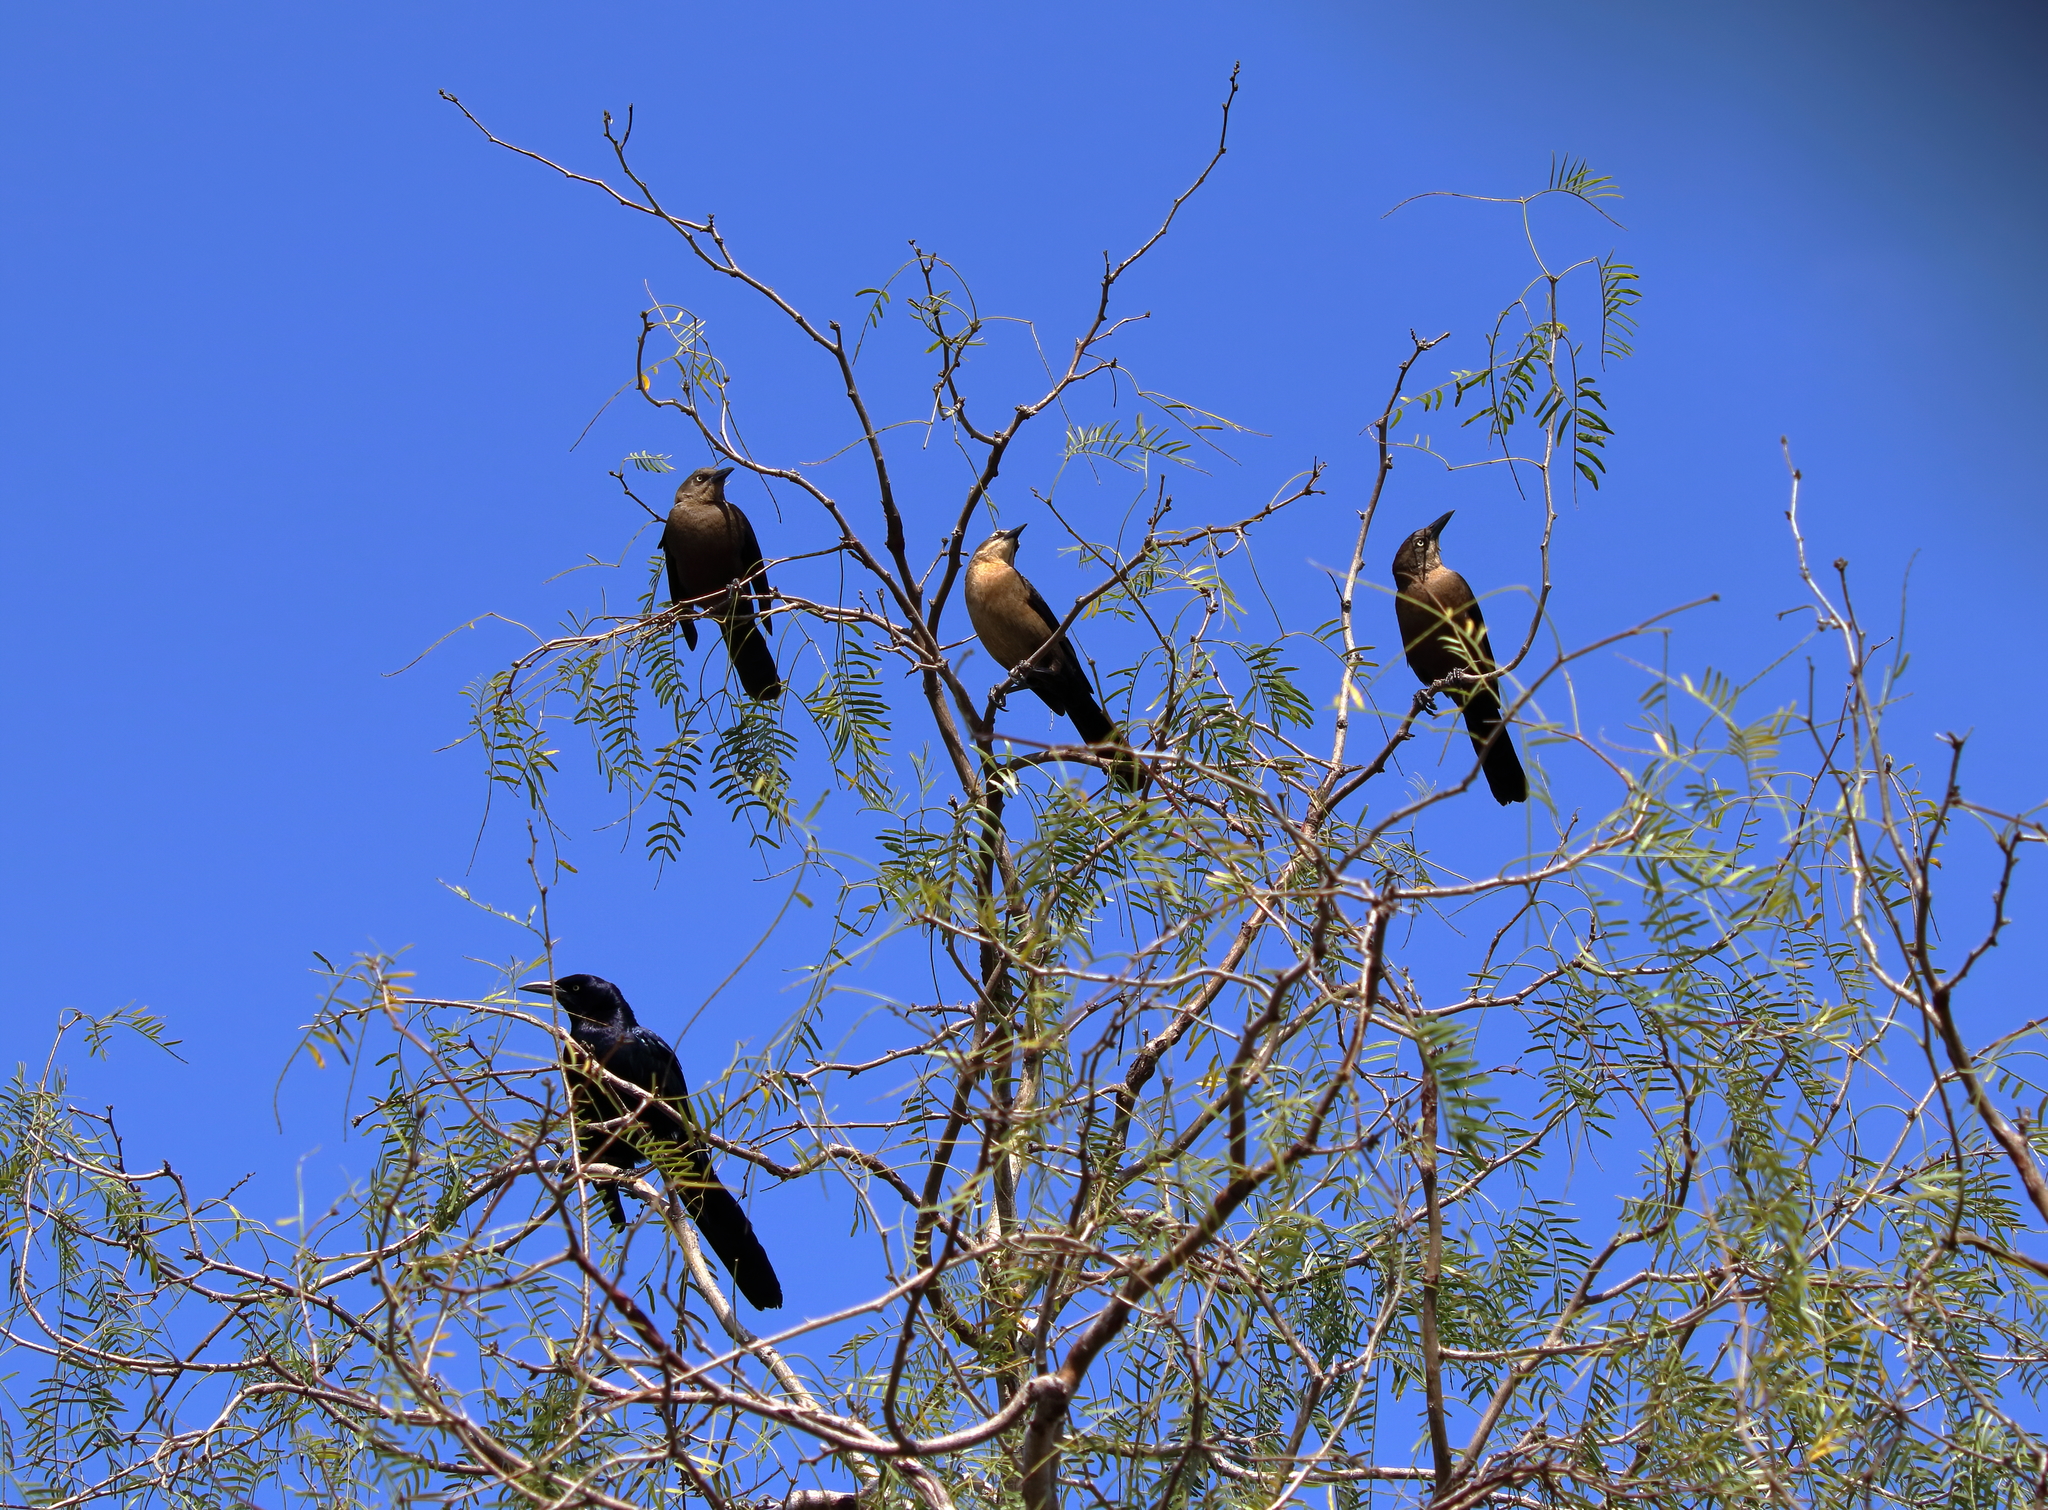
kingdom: Animalia
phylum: Chordata
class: Aves
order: Passeriformes
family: Icteridae
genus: Quiscalus
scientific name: Quiscalus mexicanus
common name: Great-tailed grackle
